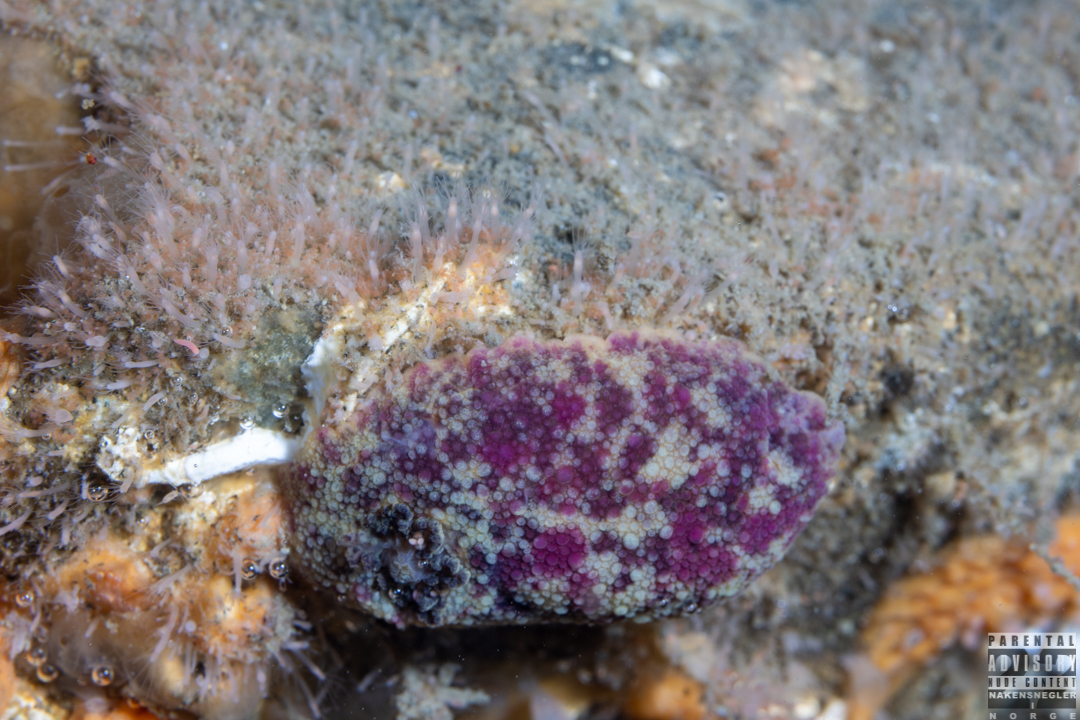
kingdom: Animalia
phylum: Mollusca
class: Gastropoda
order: Nudibranchia
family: Dorididae
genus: Doris
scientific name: Doris pseudoargus
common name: Sea lemon
